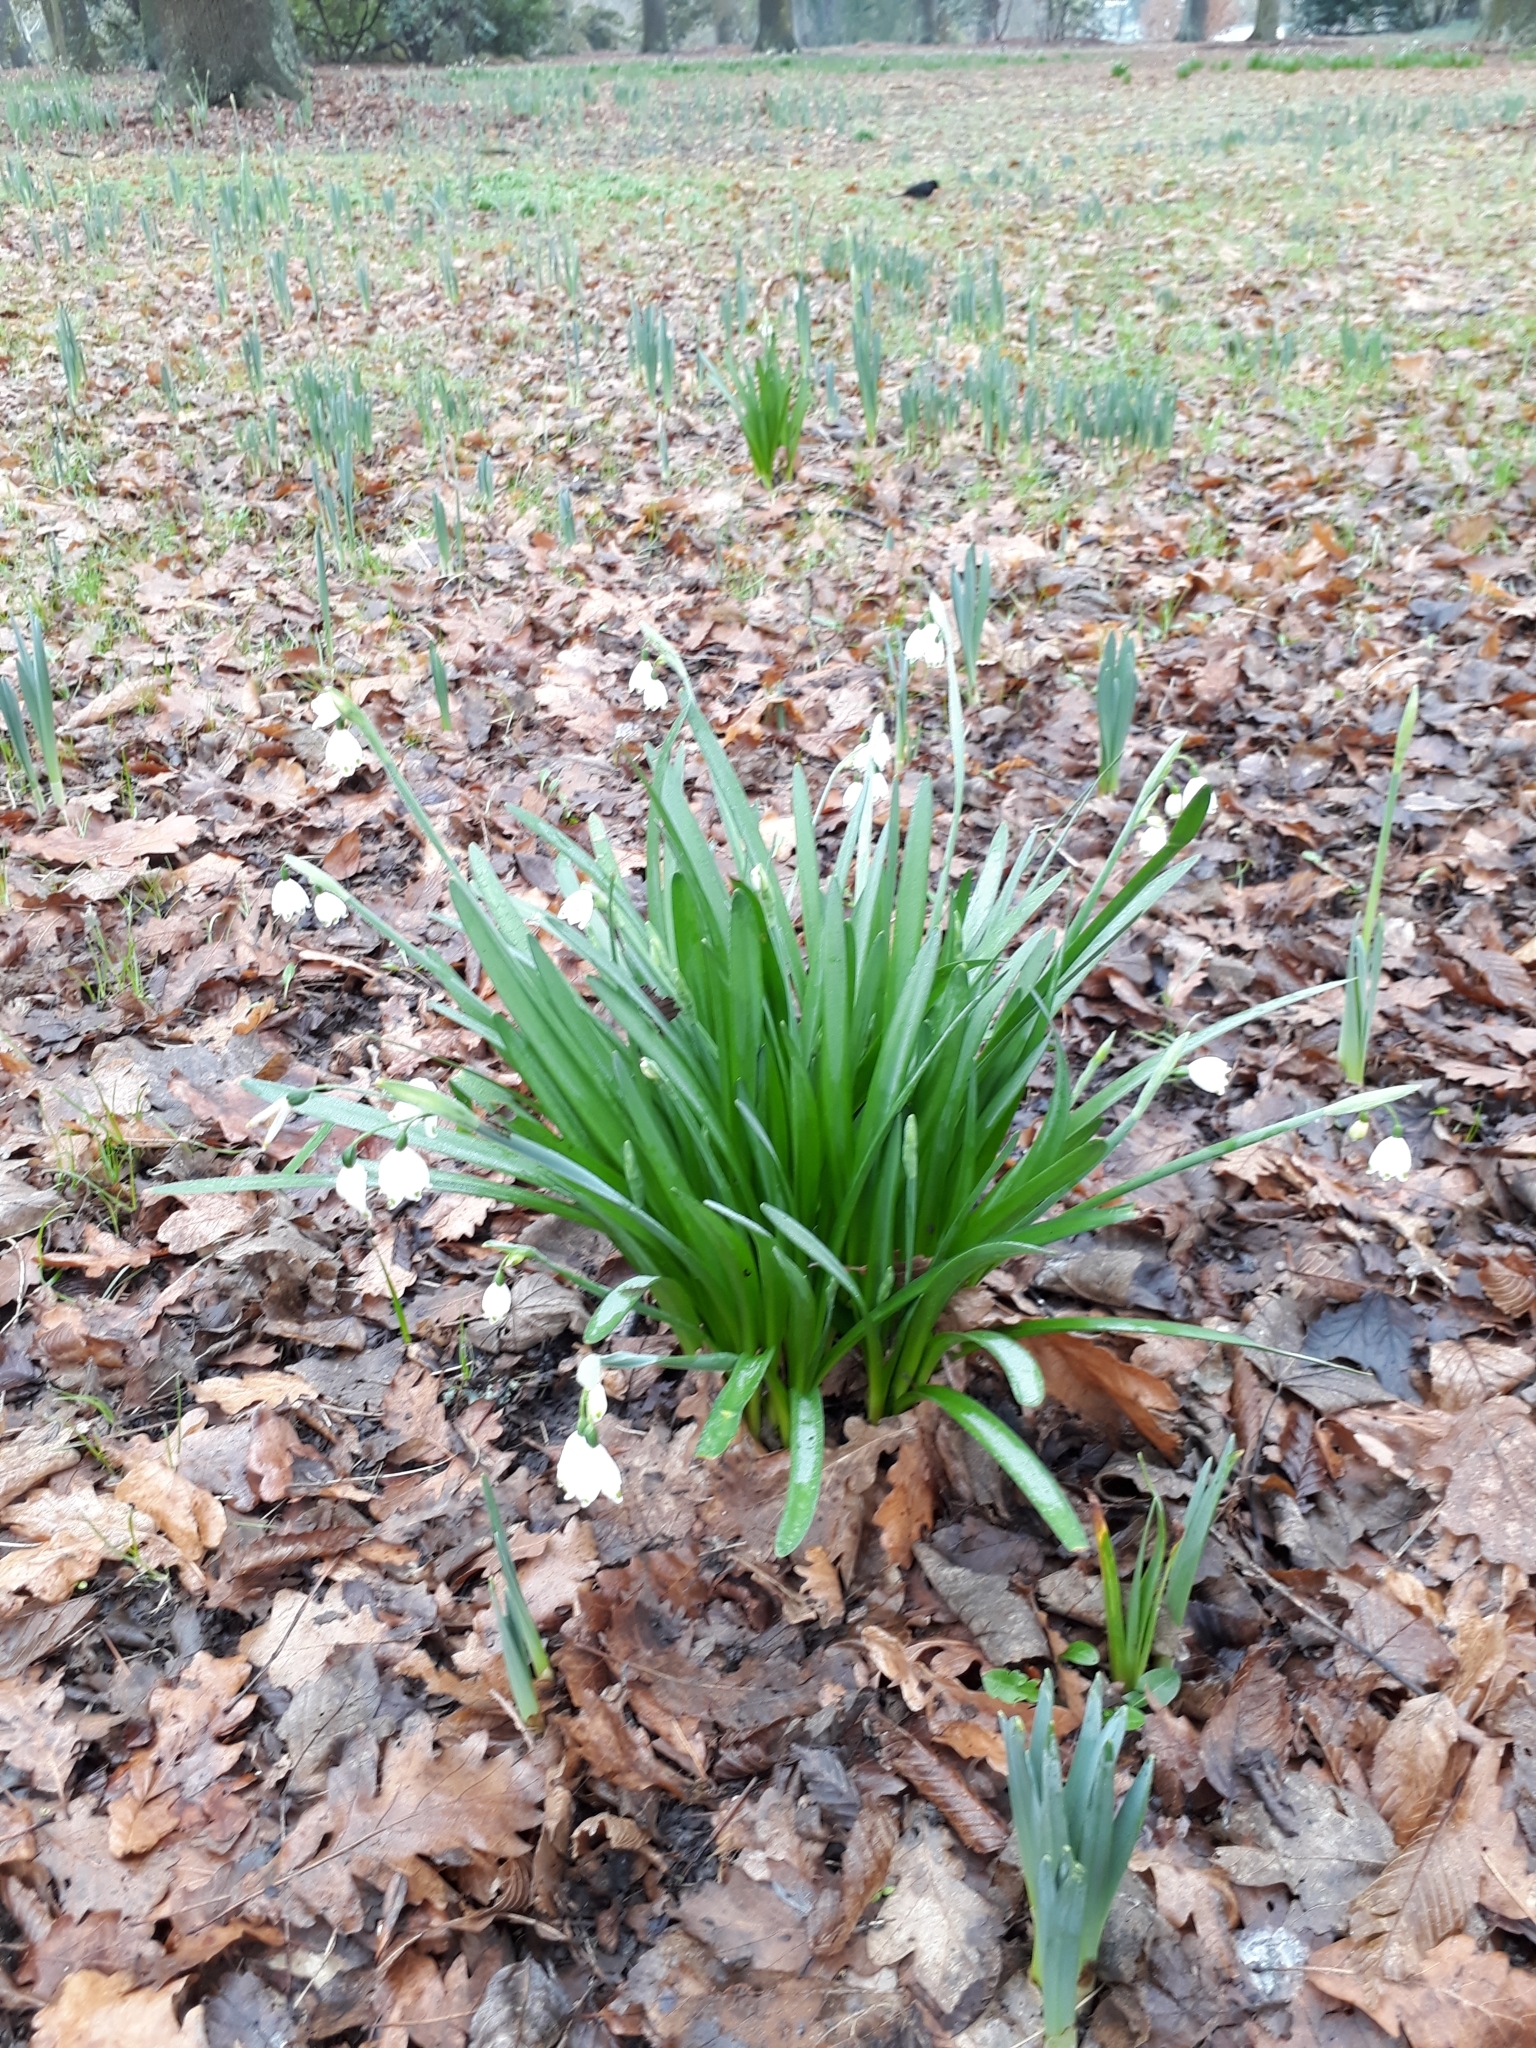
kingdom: Plantae
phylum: Tracheophyta
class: Liliopsida
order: Asparagales
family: Amaryllidaceae
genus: Leucojum
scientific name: Leucojum aestivum
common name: Summer snowflake
